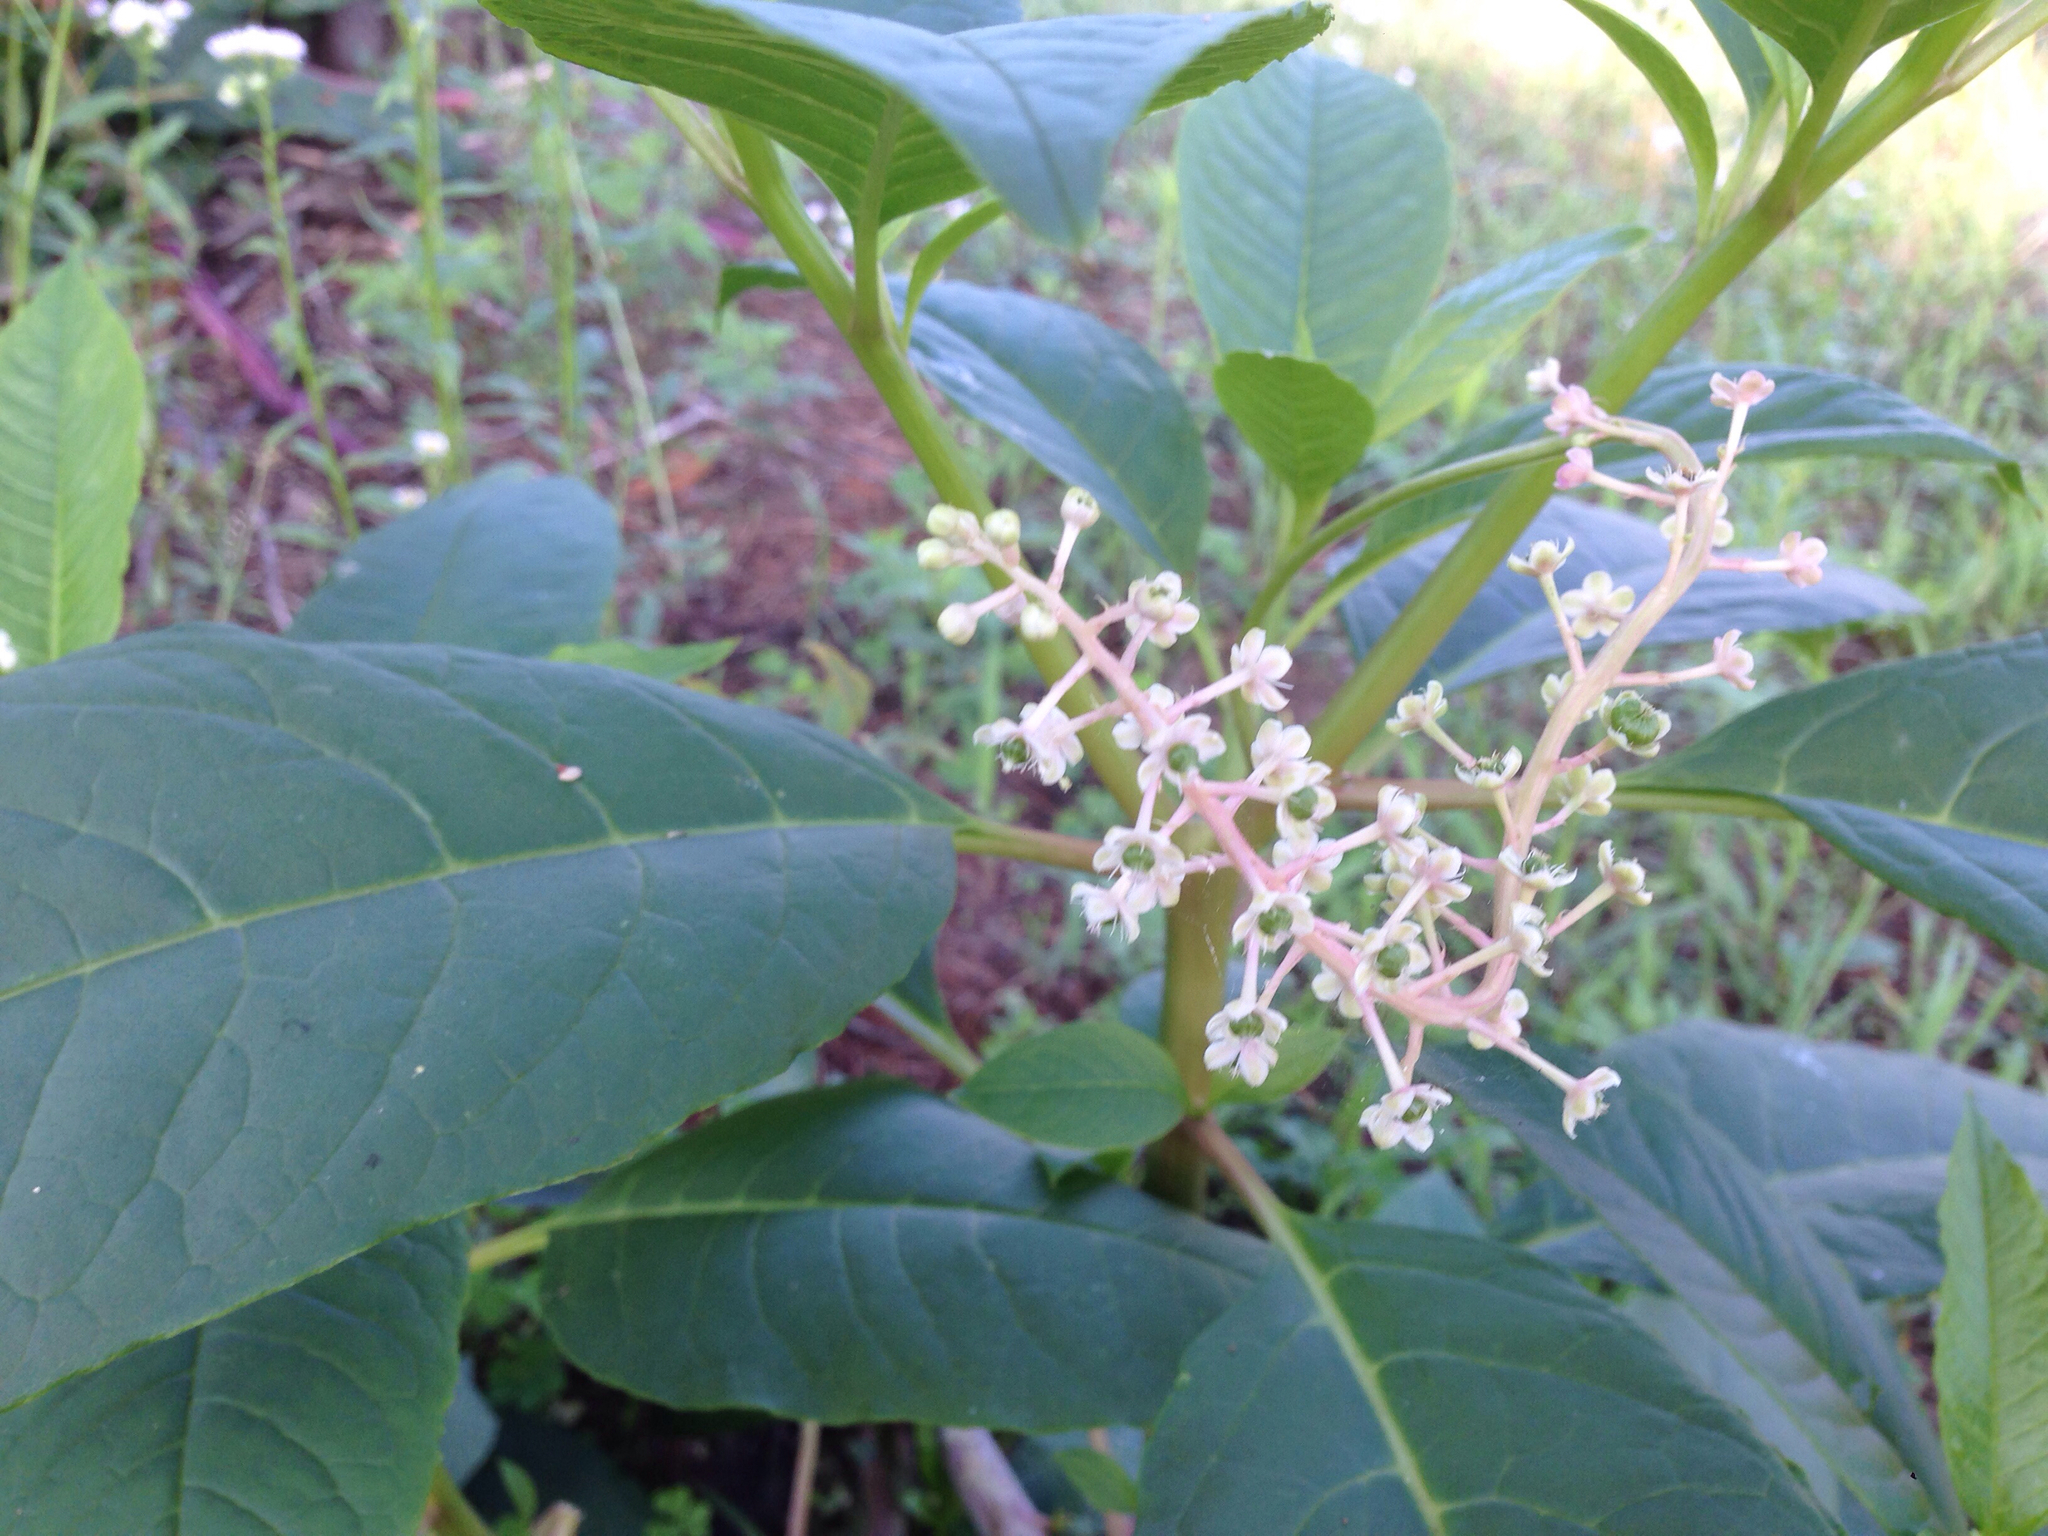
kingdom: Plantae
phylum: Tracheophyta
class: Magnoliopsida
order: Caryophyllales
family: Phytolaccaceae
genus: Phytolacca
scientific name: Phytolacca americana
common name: American pokeweed
